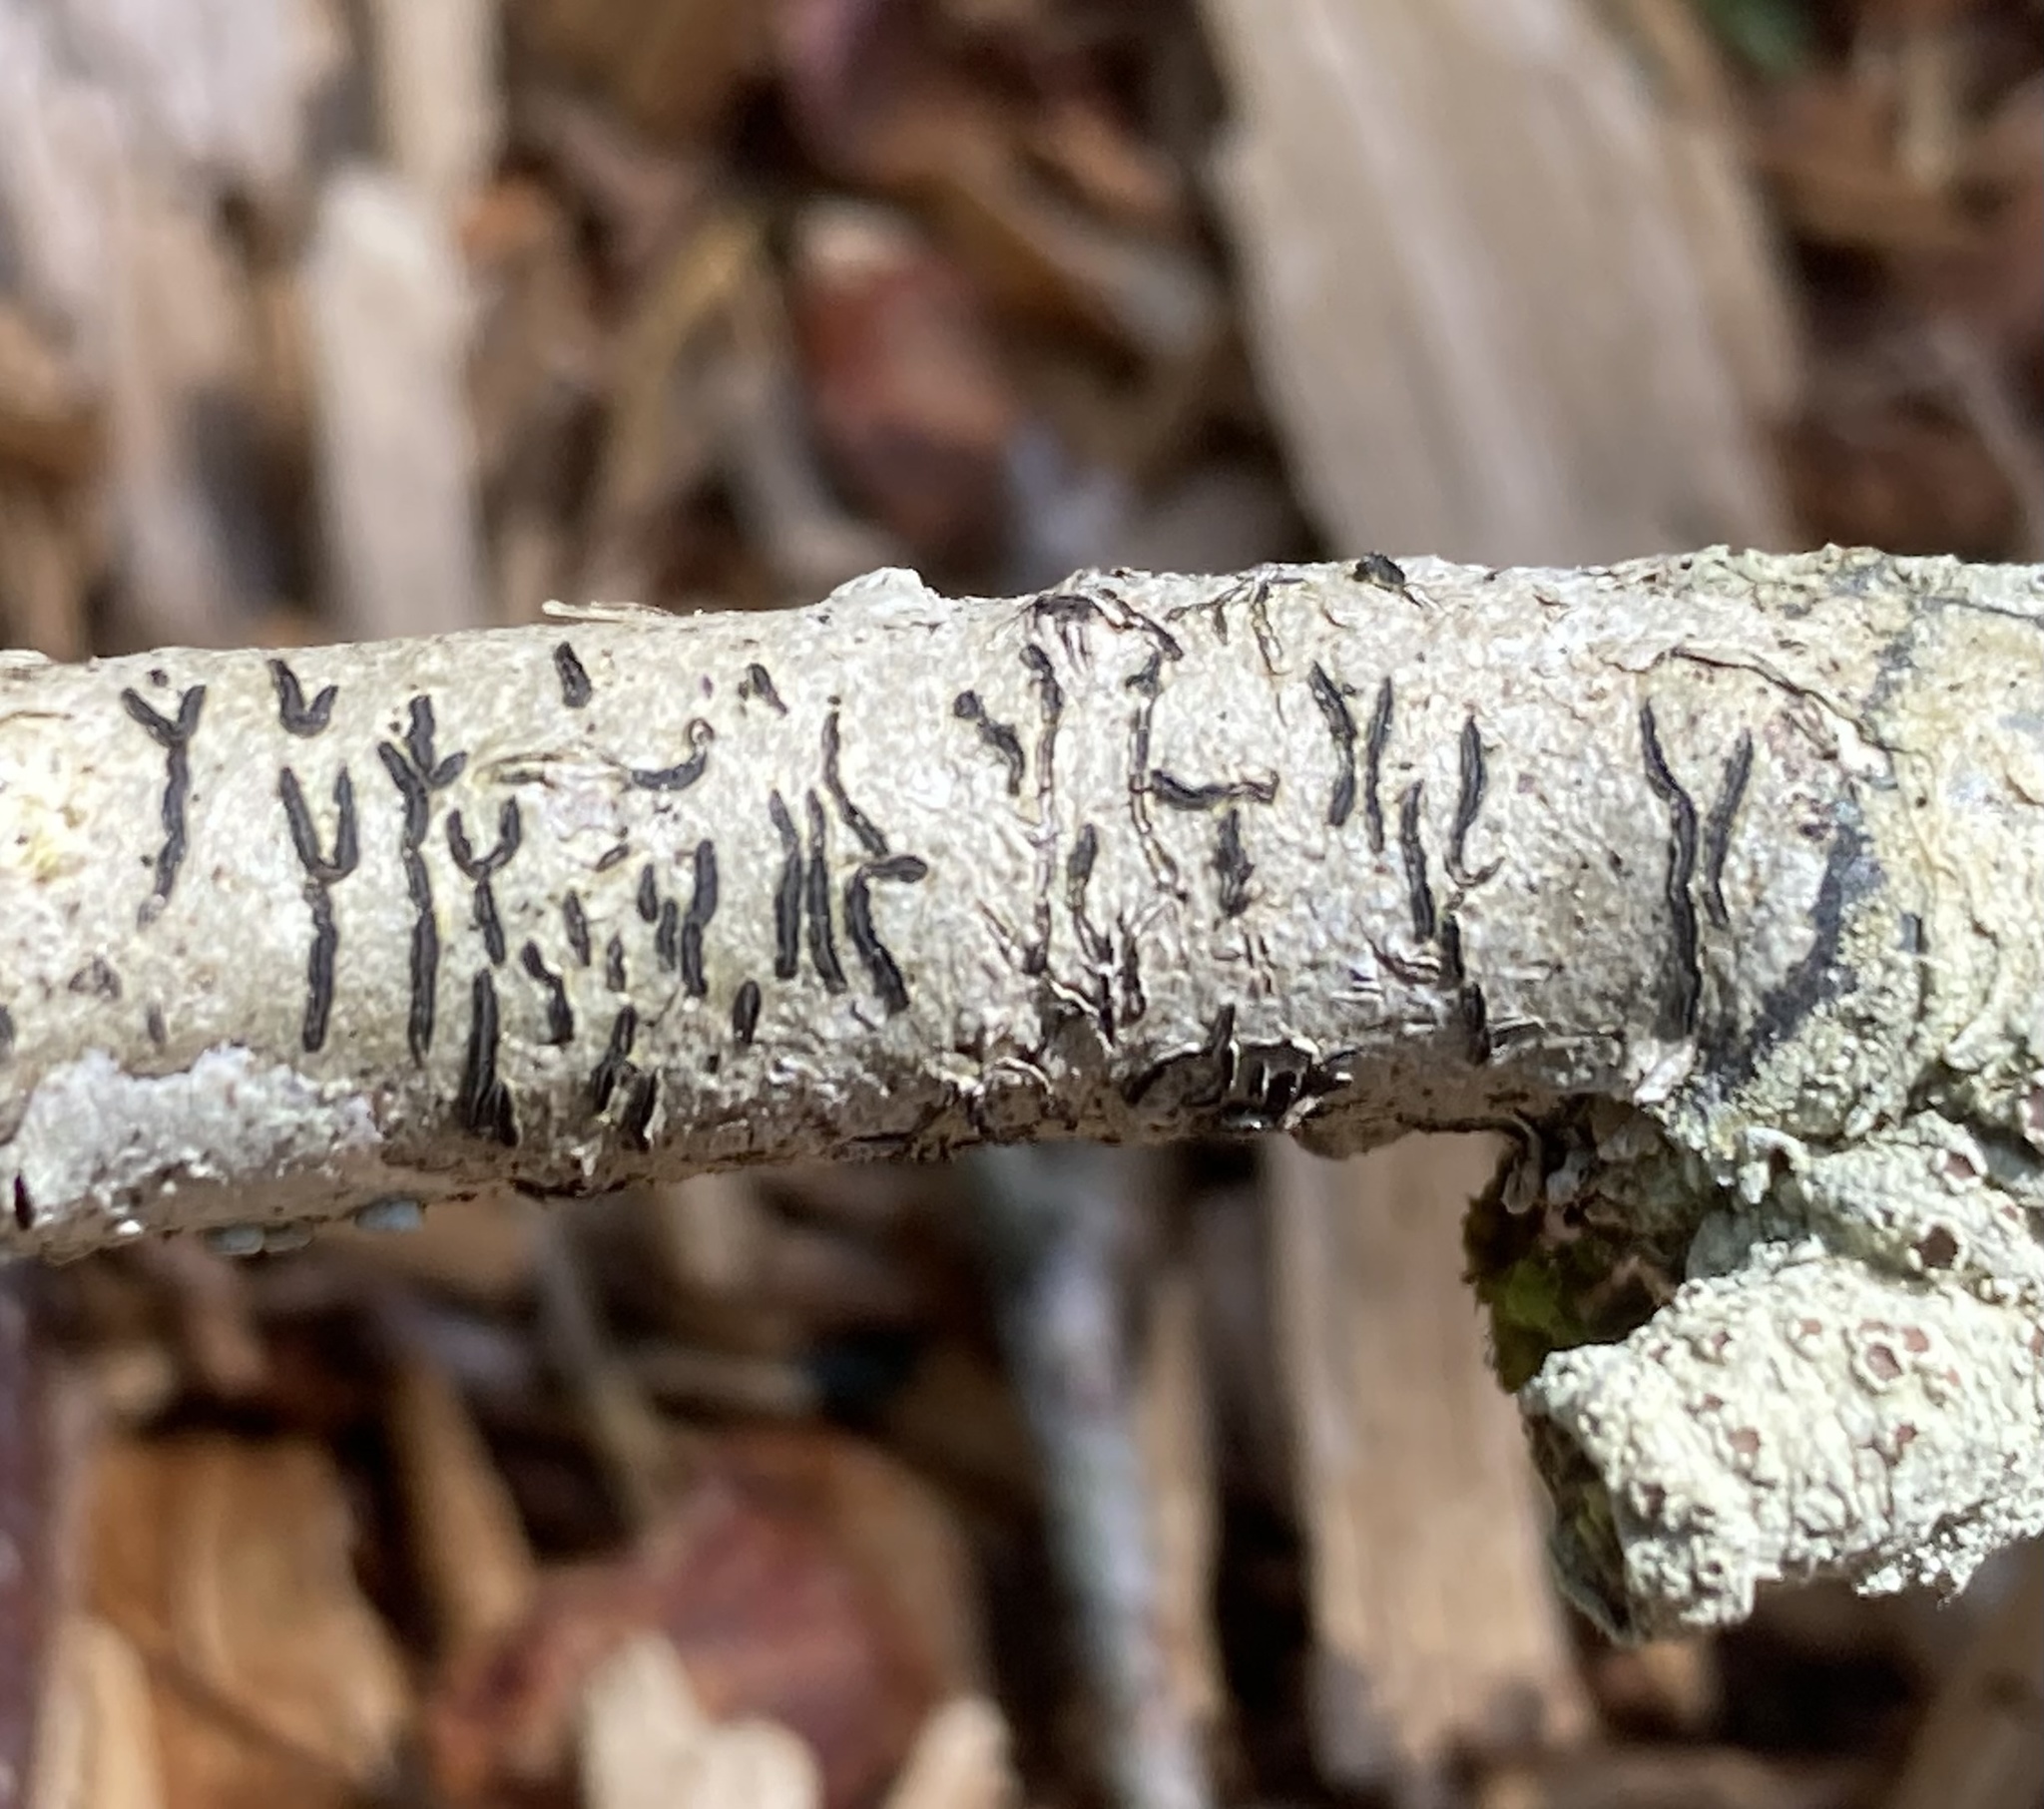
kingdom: Fungi
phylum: Ascomycota
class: Lecanoromycetes
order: Ostropales
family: Graphidaceae
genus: Graphis
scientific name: Graphis scripta
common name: Script lichen
